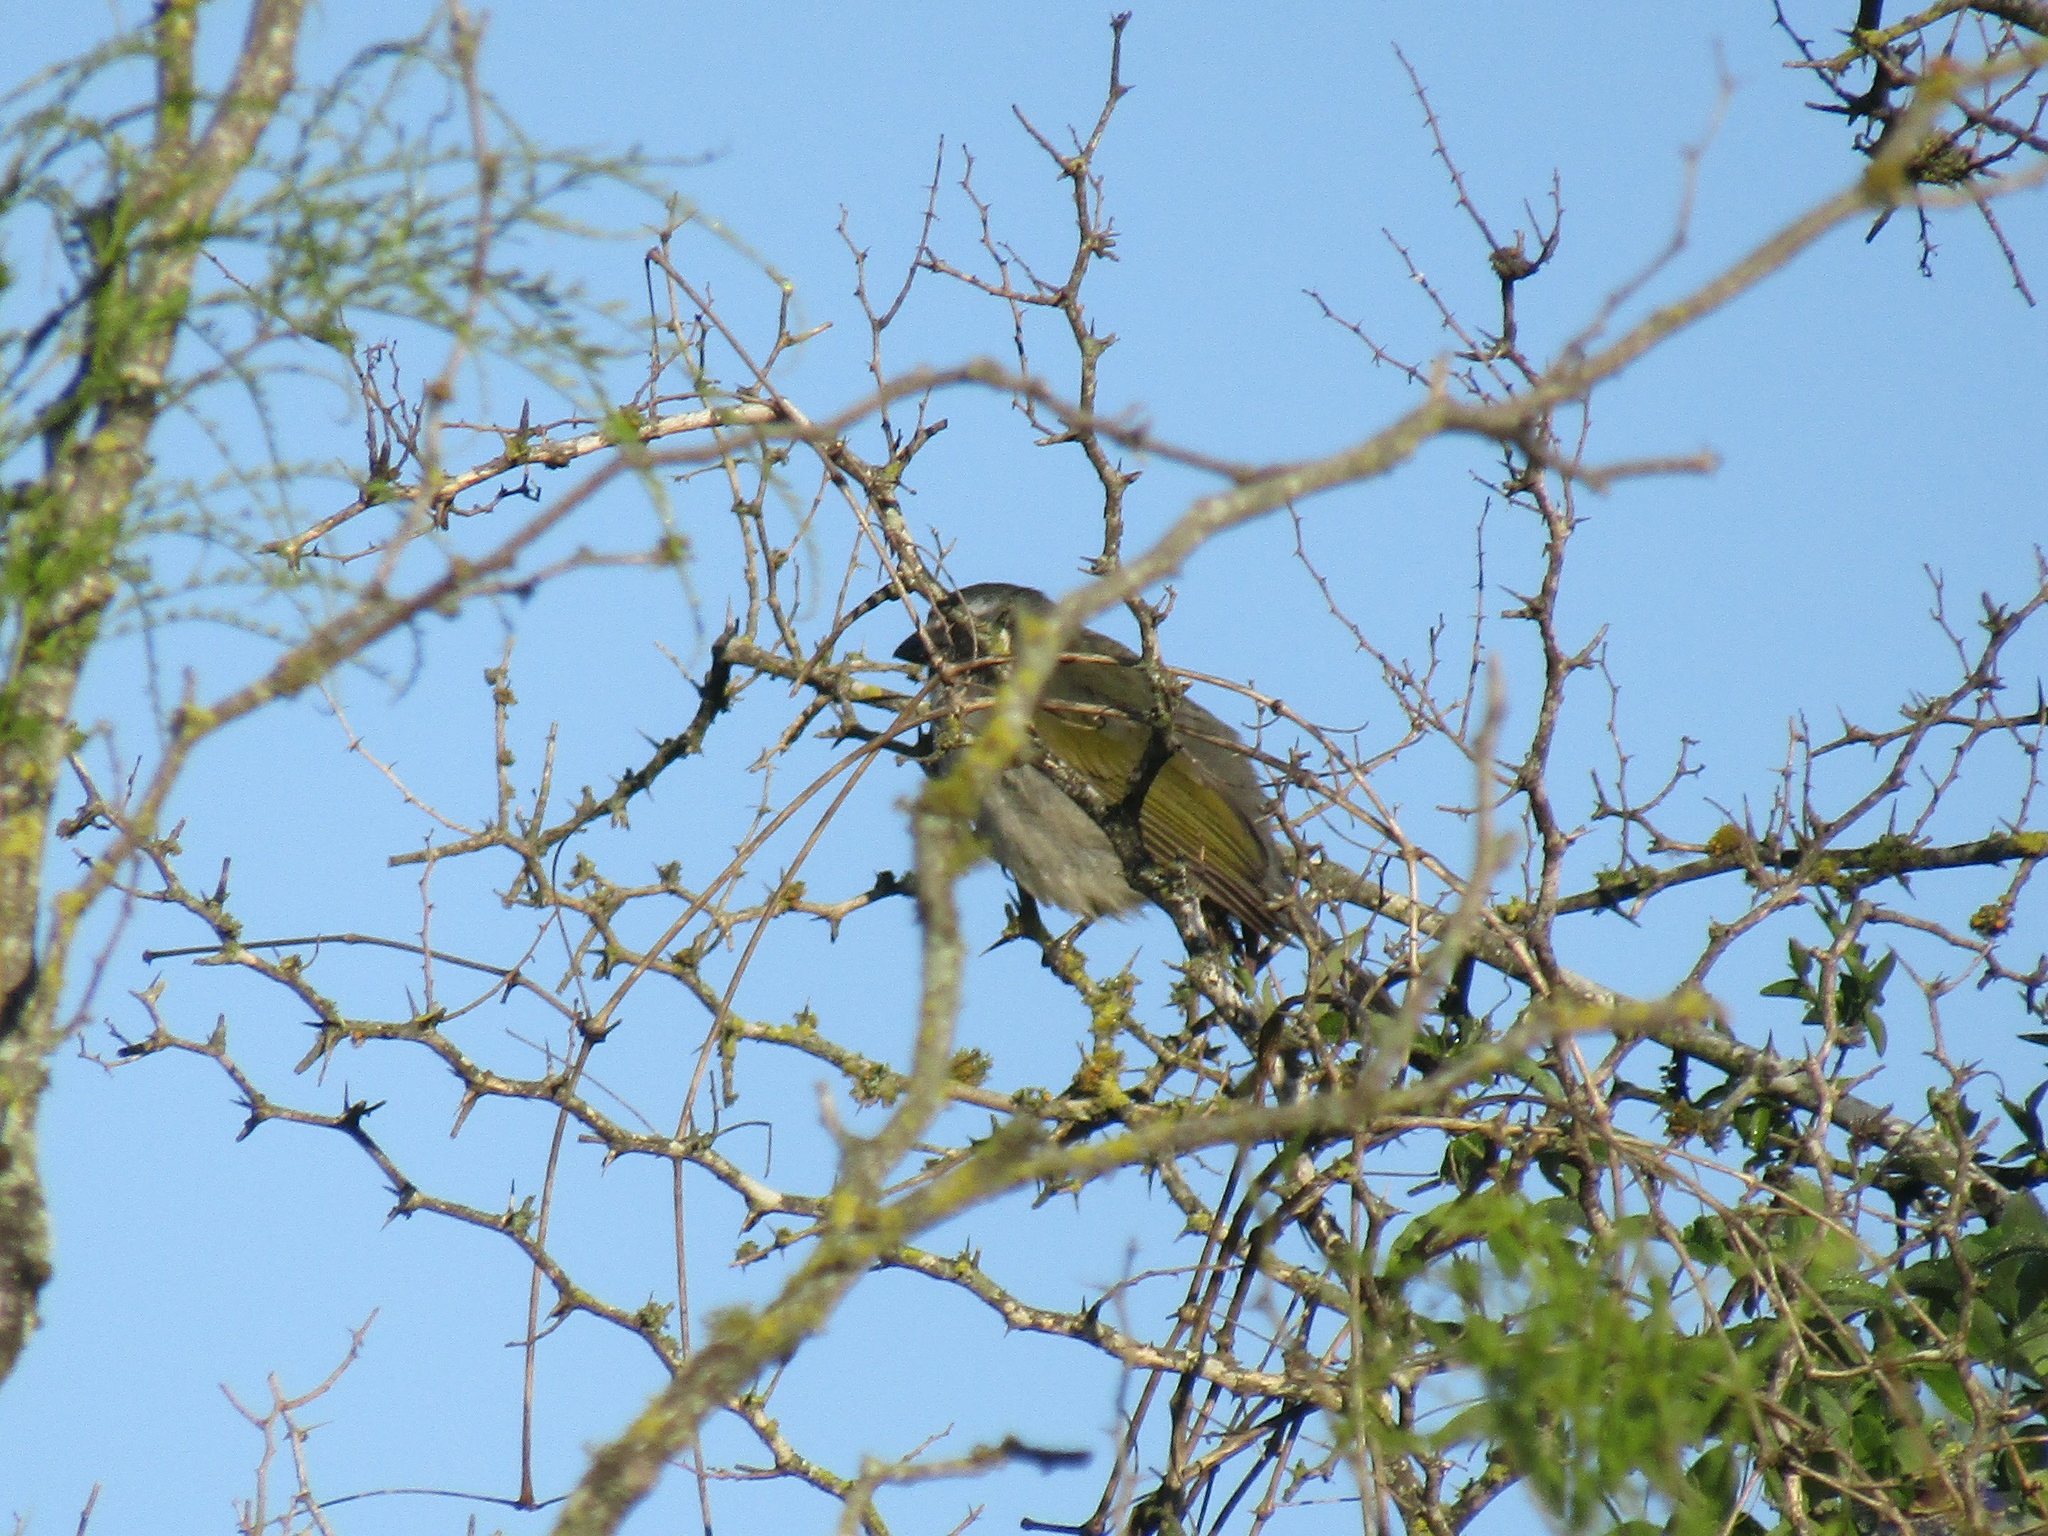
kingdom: Animalia
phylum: Chordata
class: Aves
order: Passeriformes
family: Thraupidae
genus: Saltator
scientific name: Saltator similis
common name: Green-winged saltator
